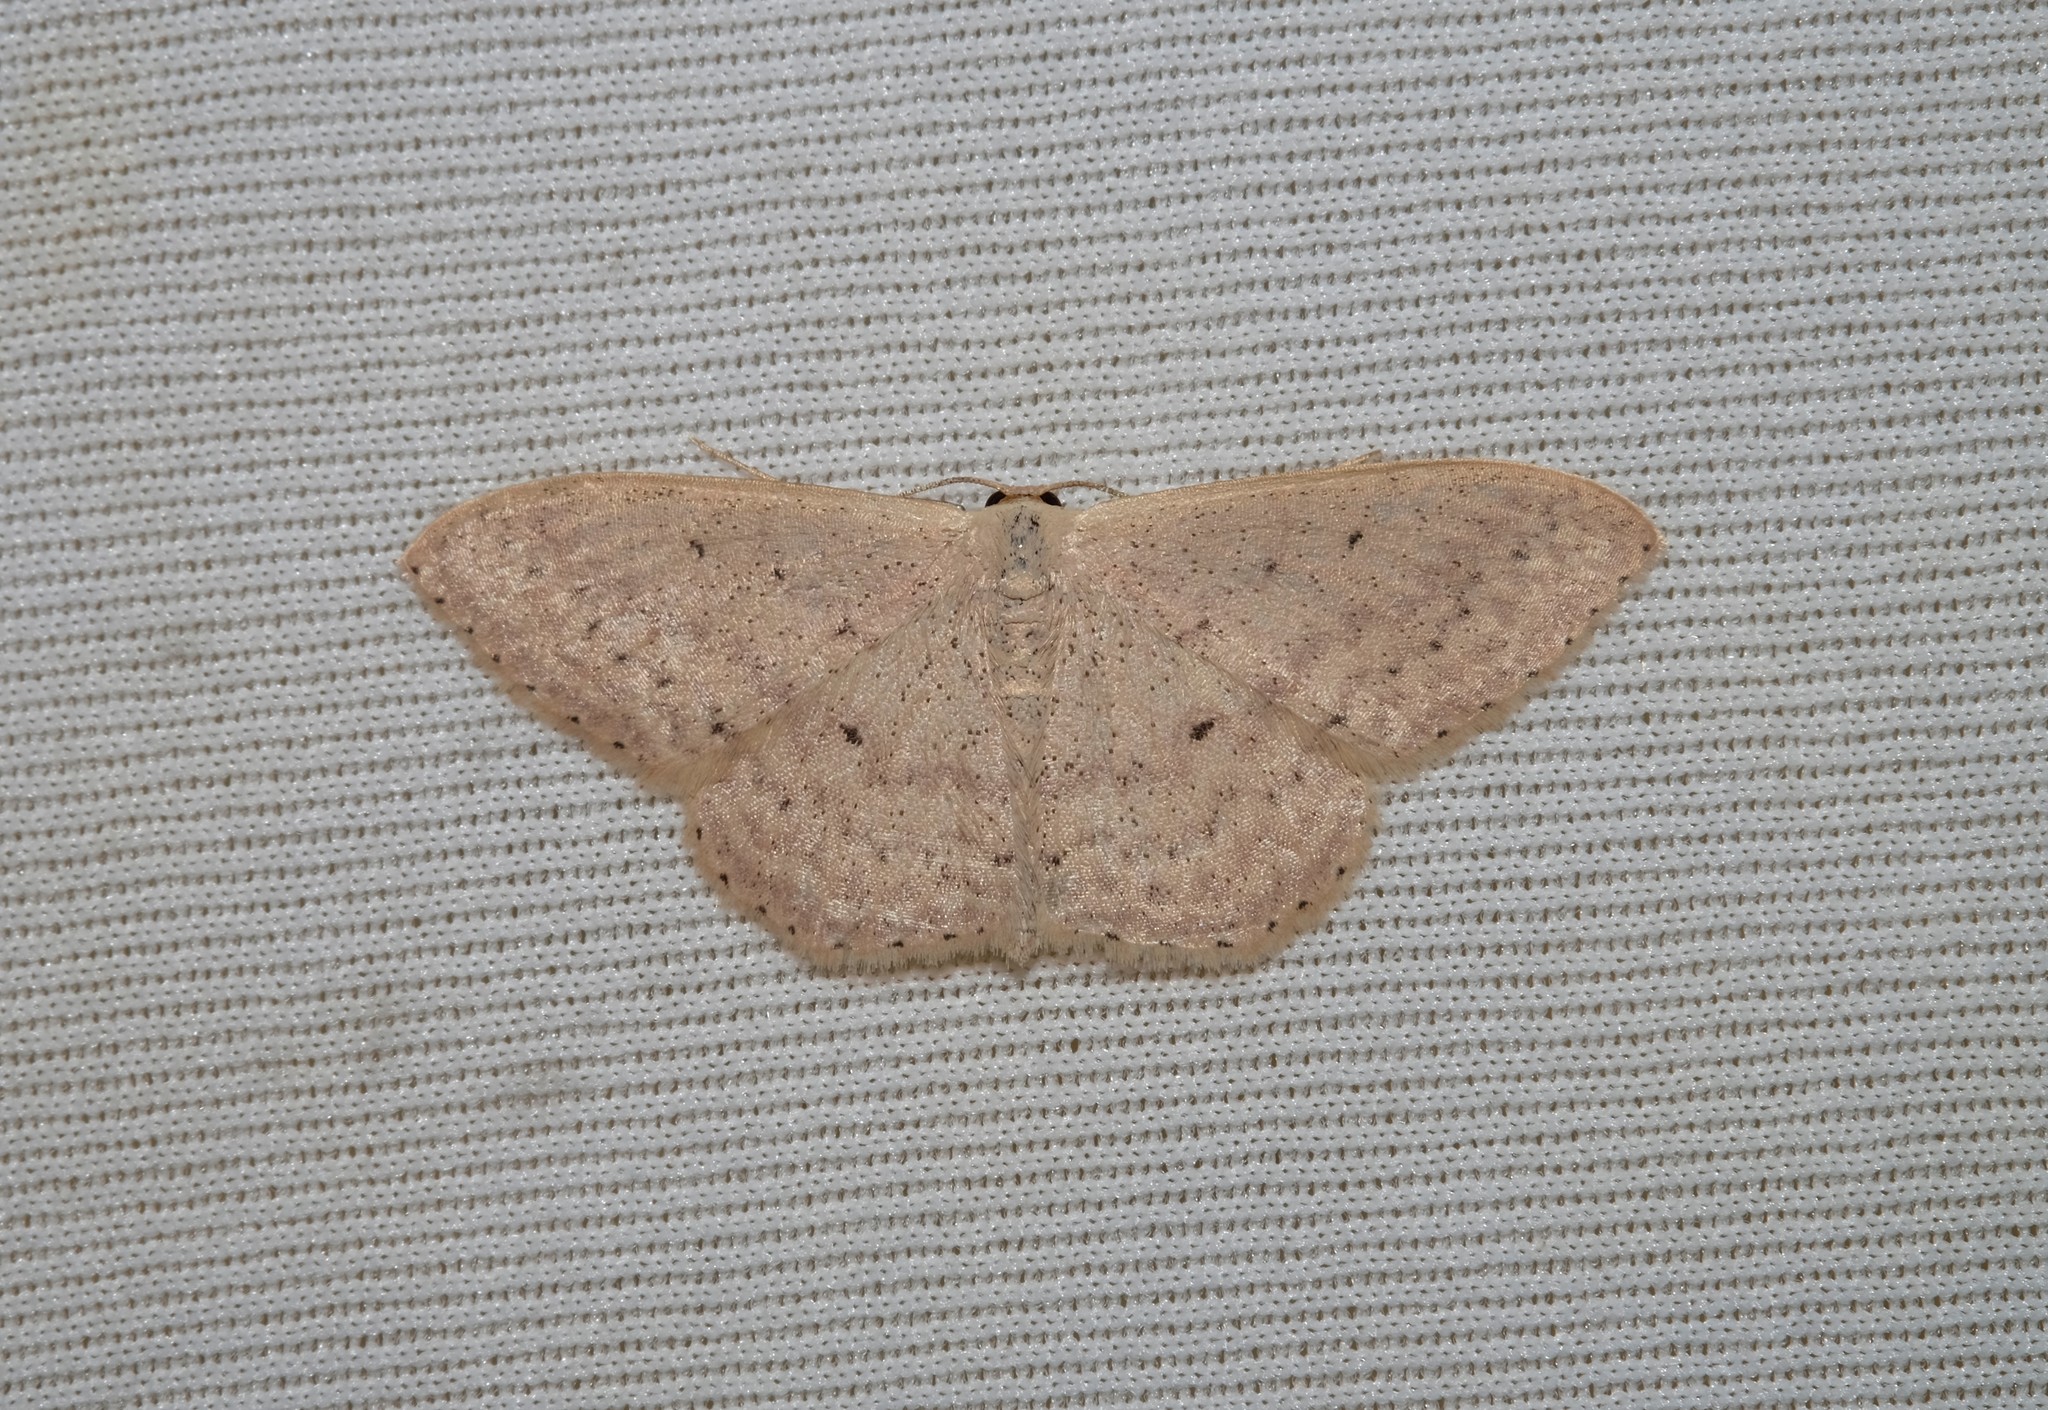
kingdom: Animalia
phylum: Arthropoda
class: Insecta
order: Lepidoptera
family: Geometridae
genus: Scopula
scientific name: Scopula optivata
